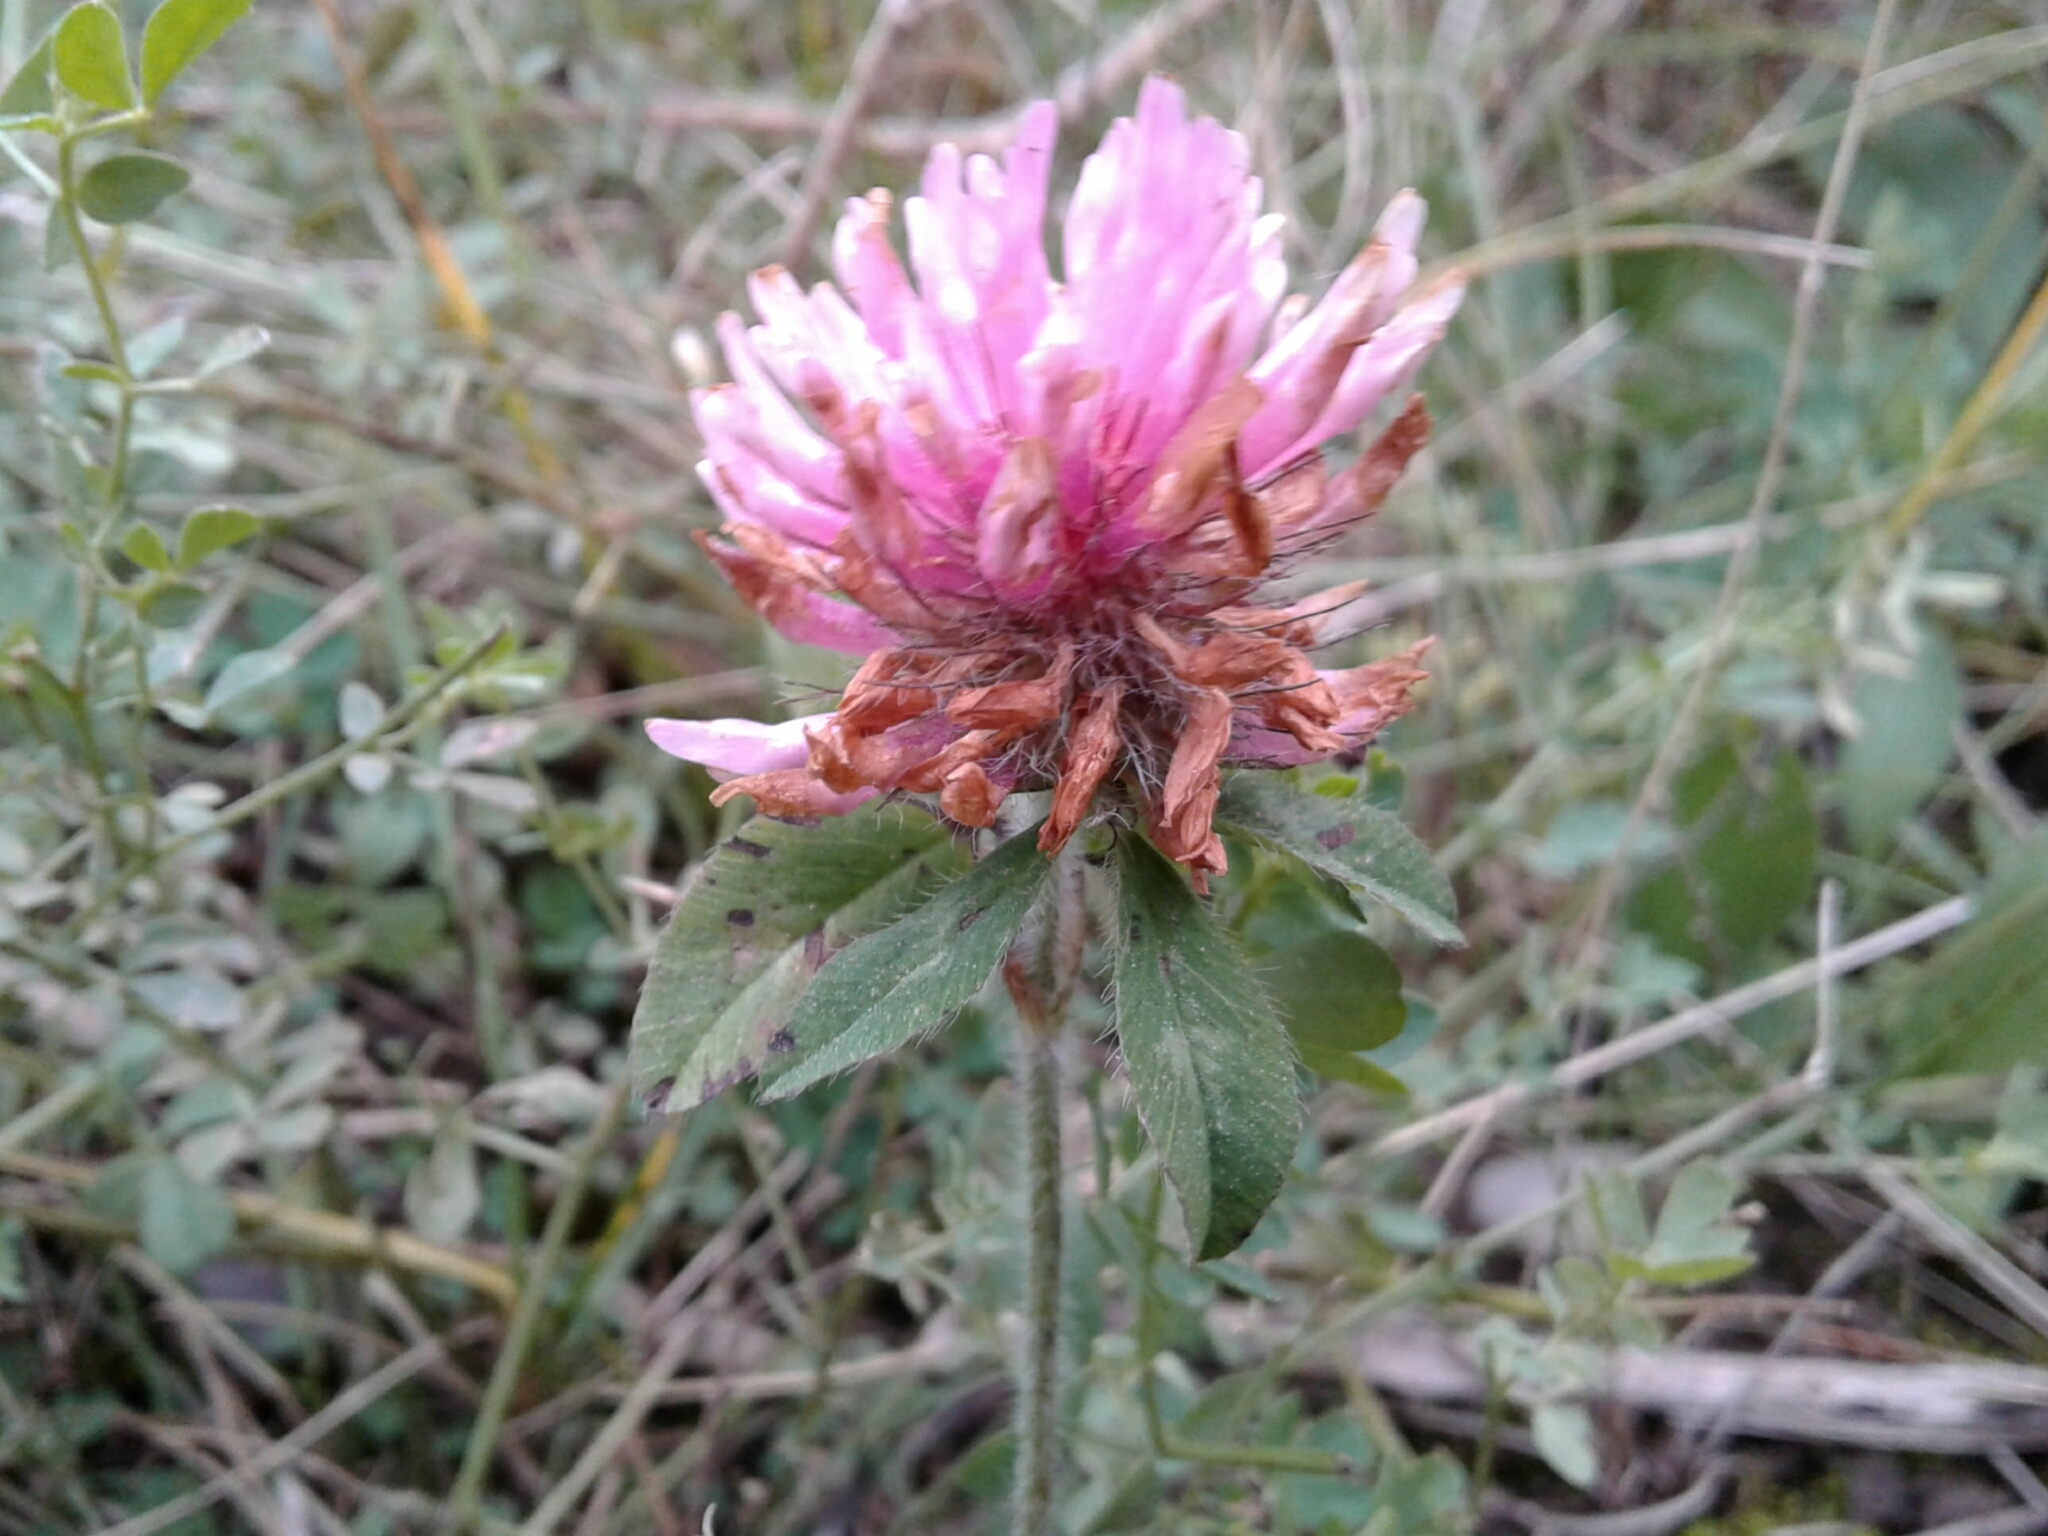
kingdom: Plantae
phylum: Tracheophyta
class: Magnoliopsida
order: Fabales
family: Fabaceae
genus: Trifolium
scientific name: Trifolium pratense
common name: Red clover
